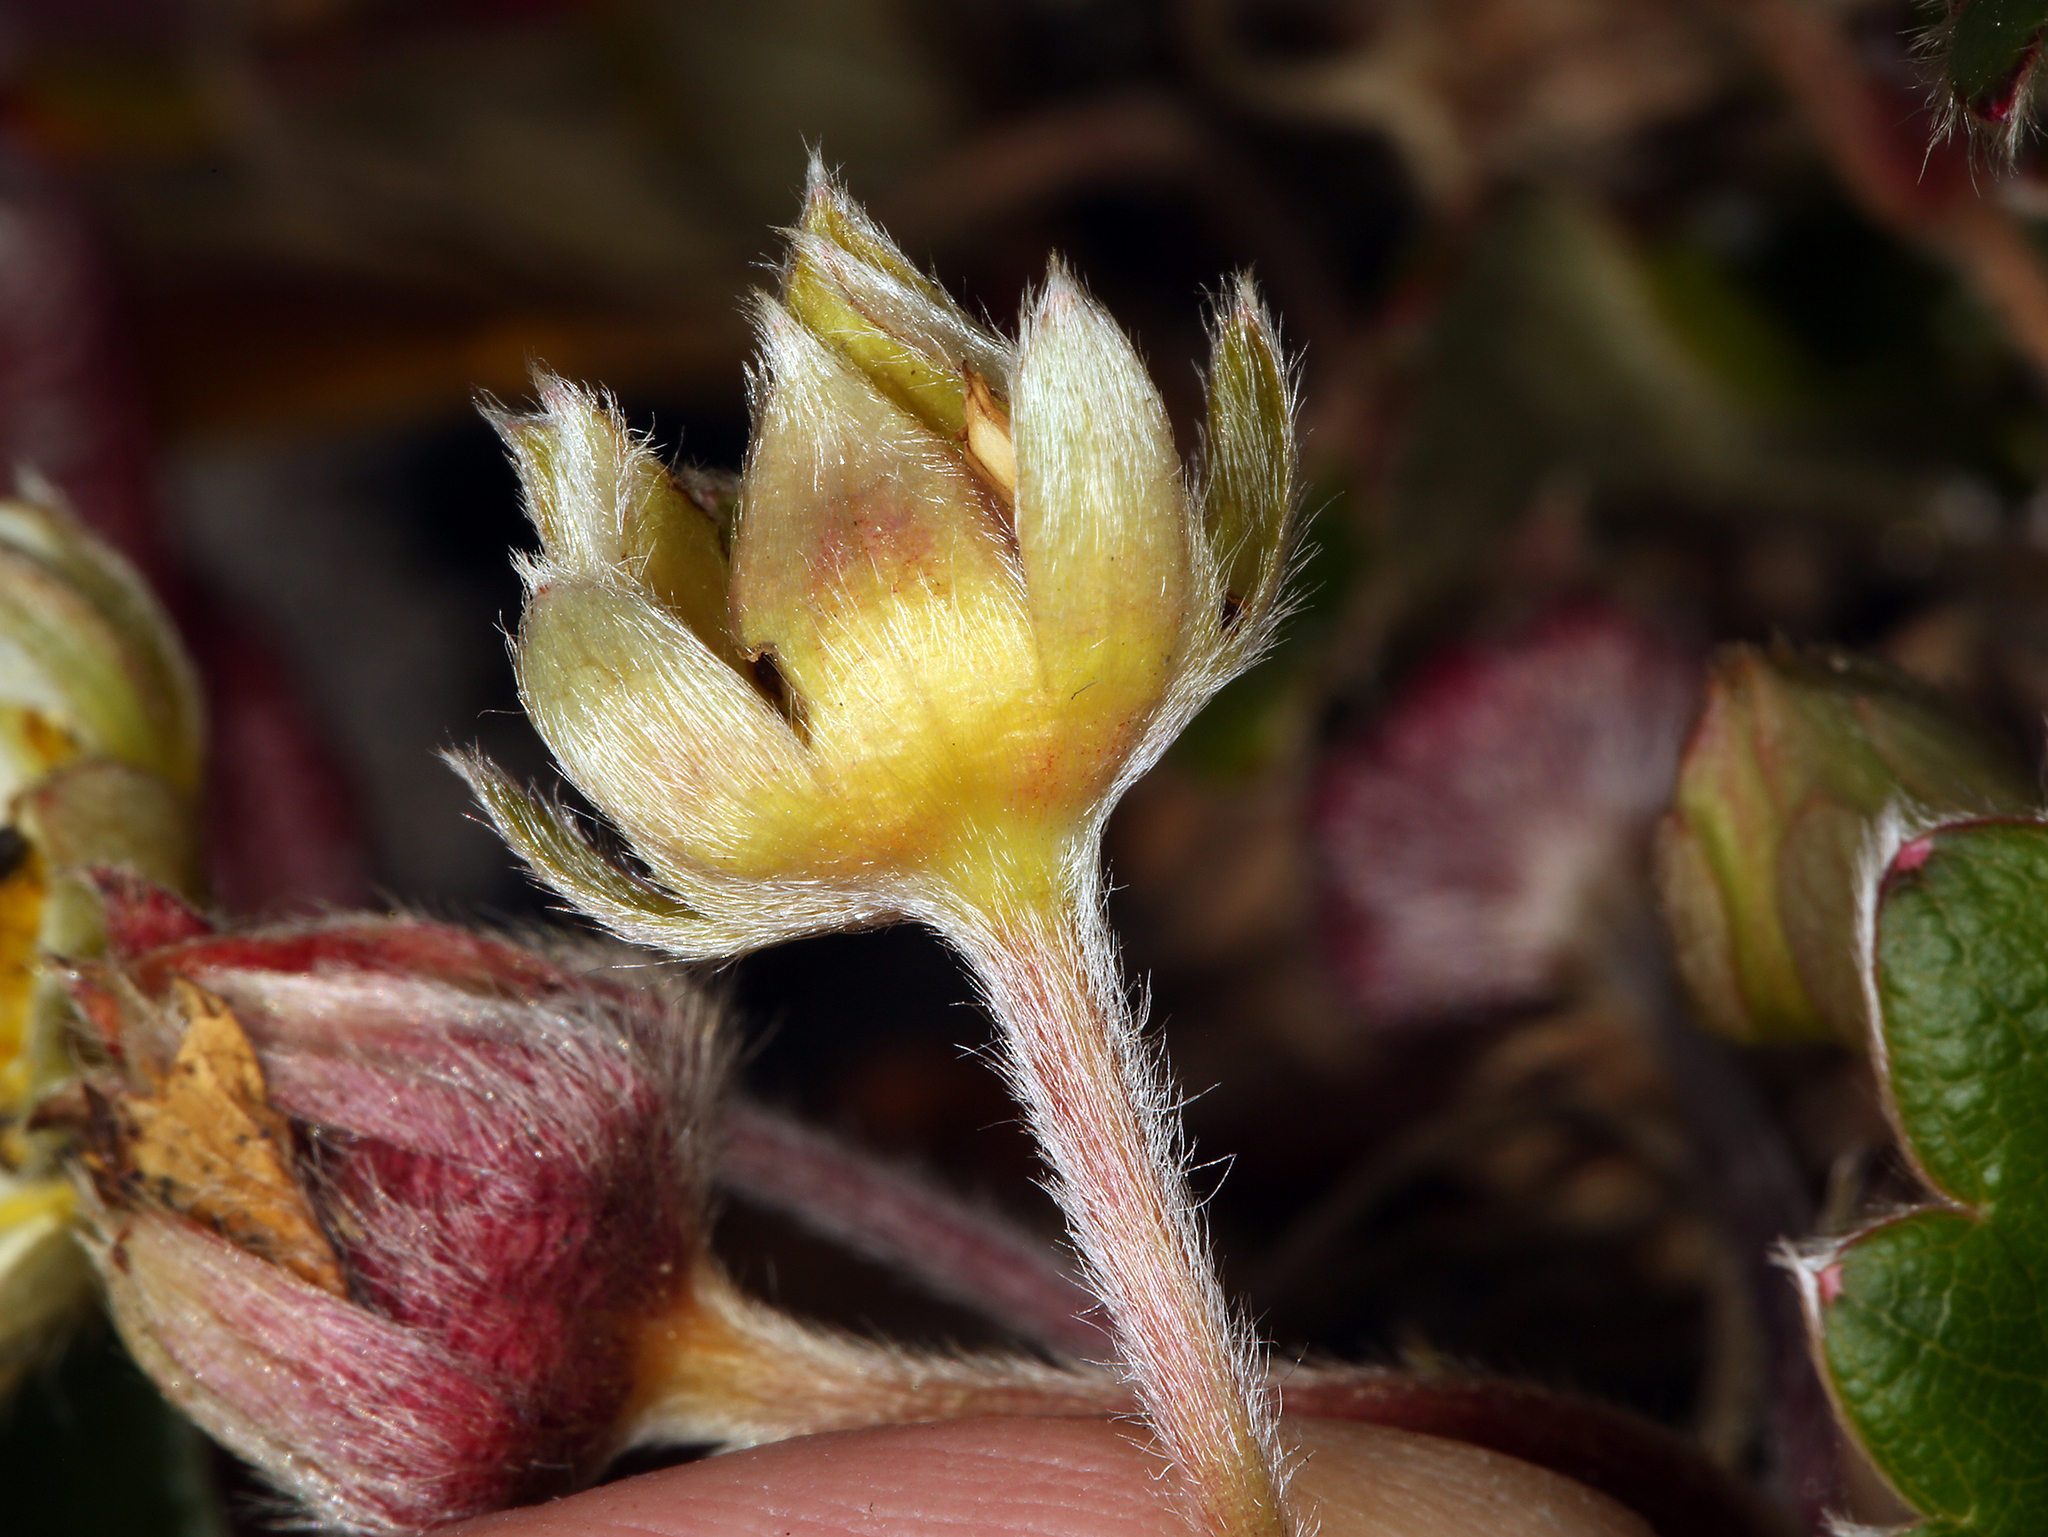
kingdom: Plantae
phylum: Tracheophyta
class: Magnoliopsida
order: Rosales
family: Rosaceae
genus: Fragaria
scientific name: Fragaria chiloensis
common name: Beach strawberry
